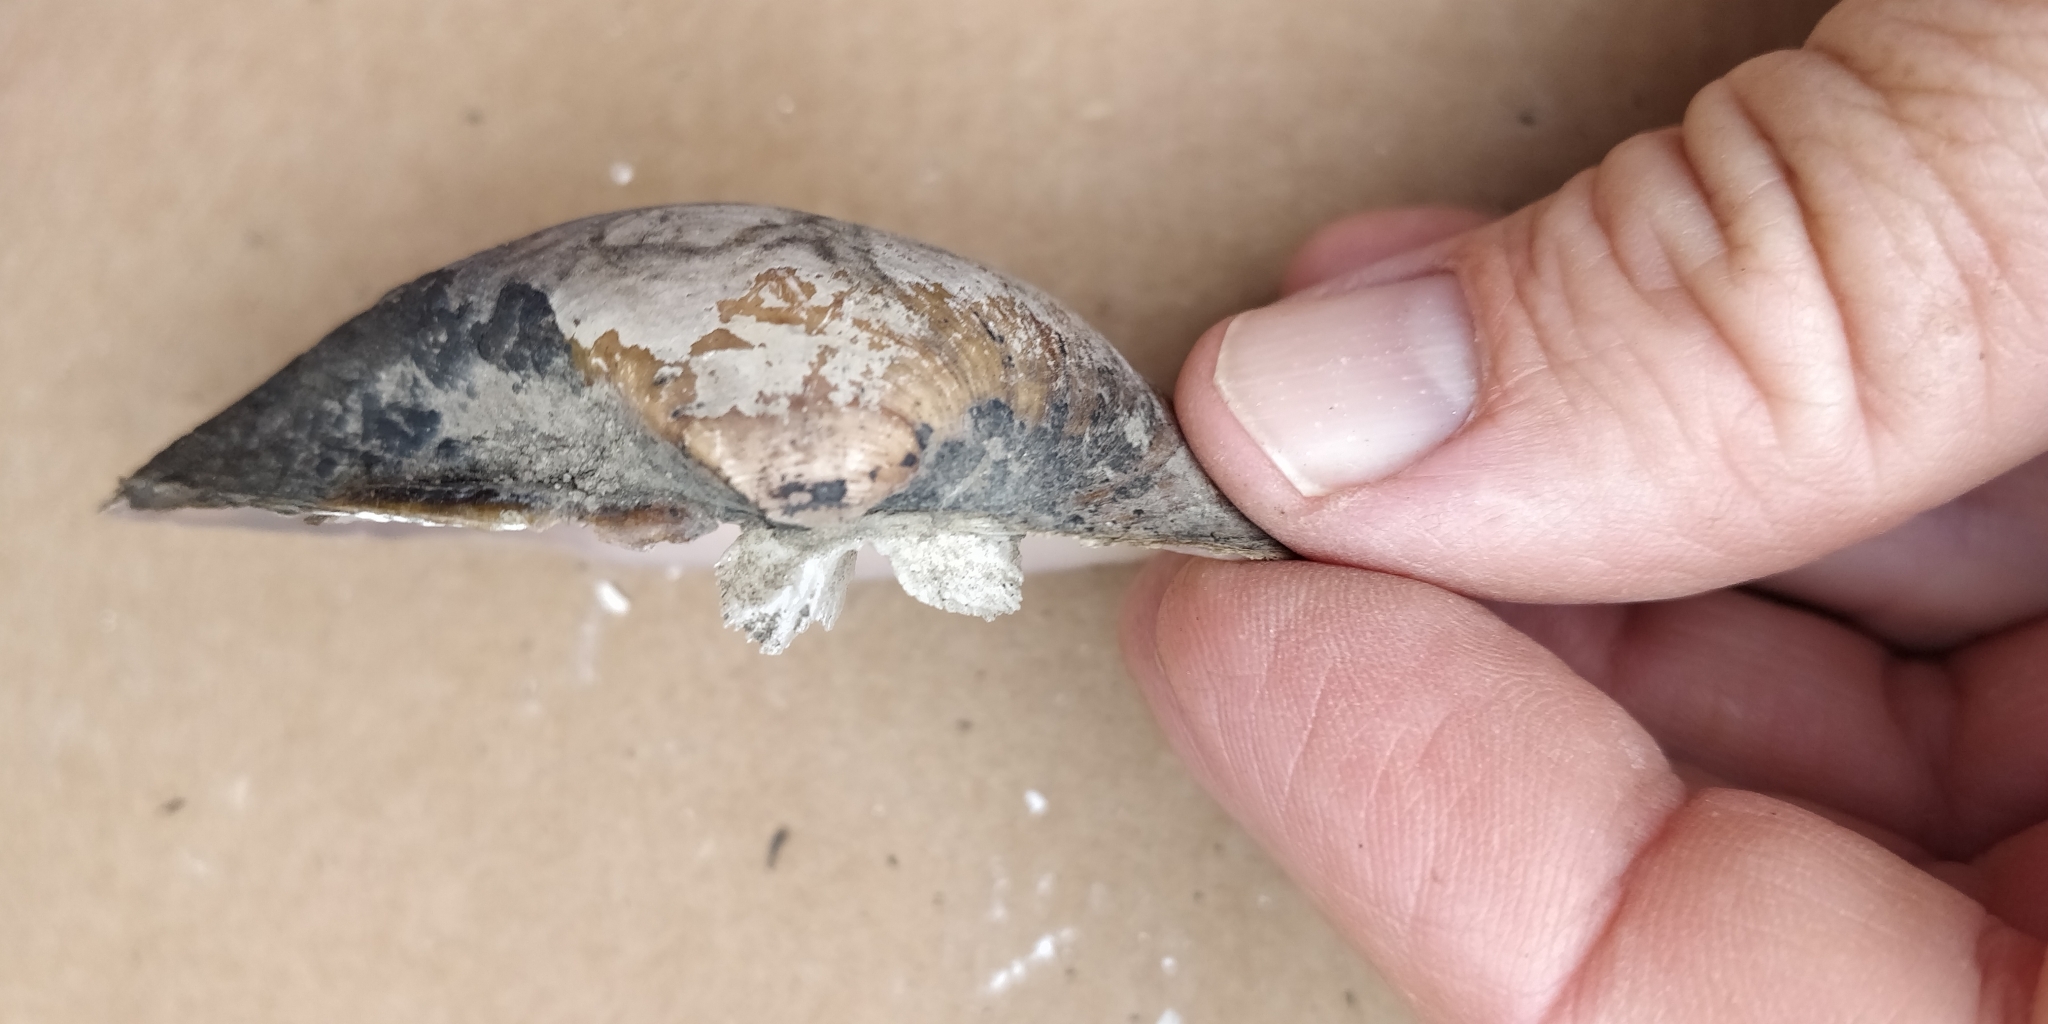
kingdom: Animalia
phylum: Mollusca
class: Bivalvia
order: Unionida
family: Unionidae
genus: Truncilla
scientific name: Truncilla truncata
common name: Deertoe
